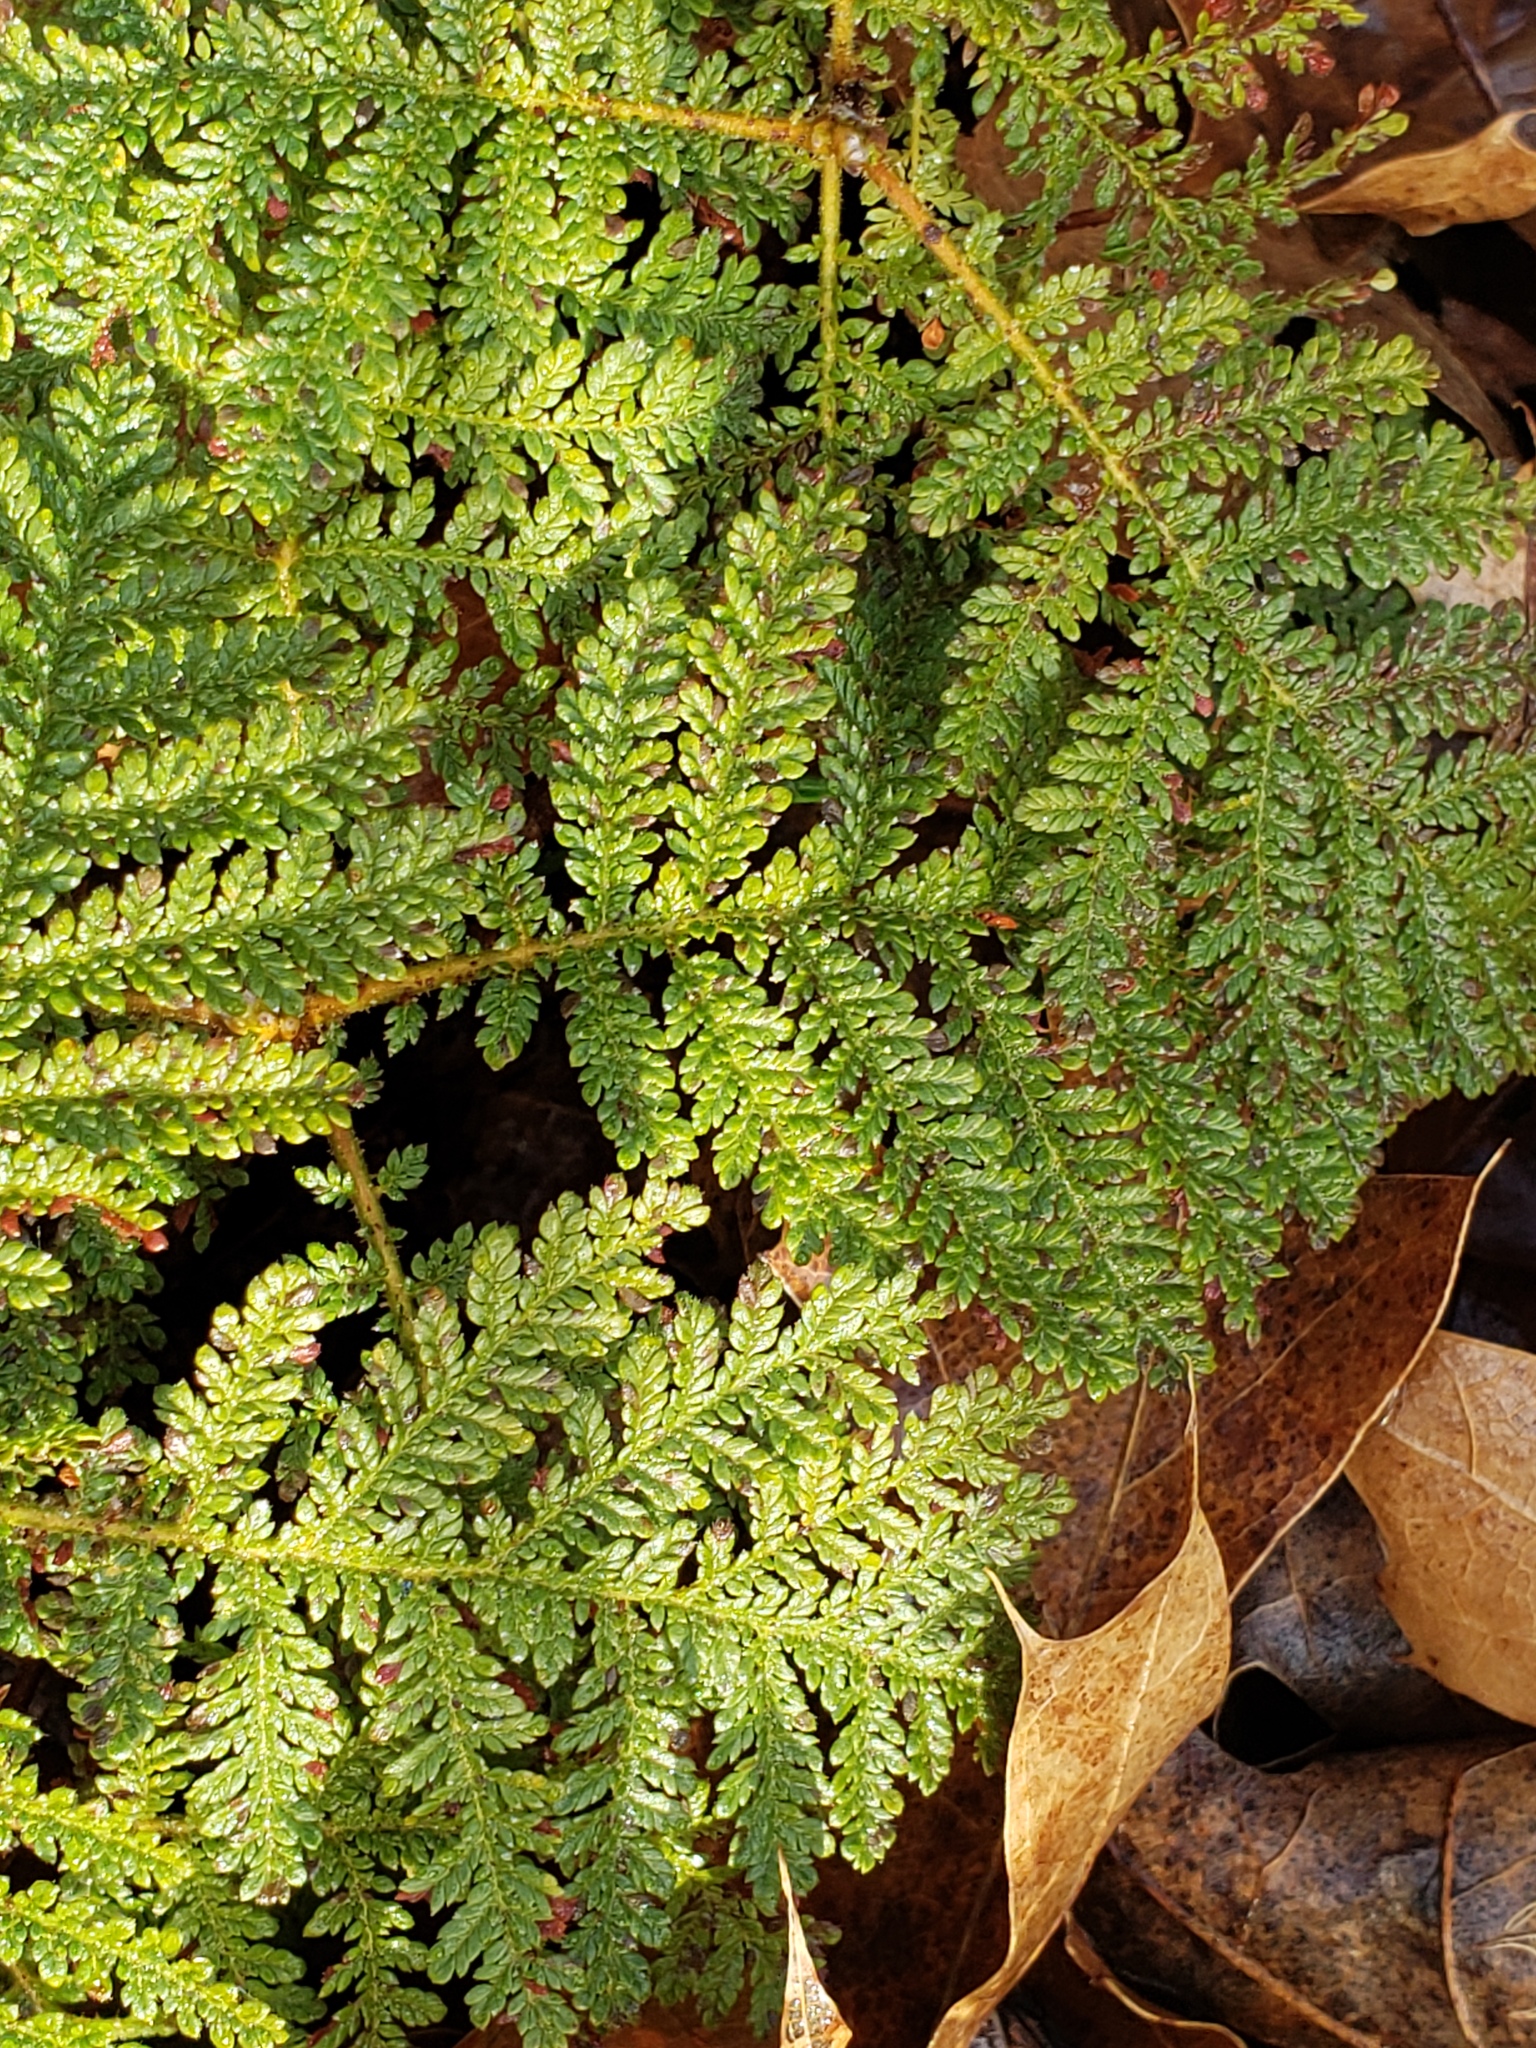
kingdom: Plantae
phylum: Tracheophyta
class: Magnoliopsida
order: Rosales
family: Rosaceae
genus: Chamaebatia
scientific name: Chamaebatia foliolosa
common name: Mountain misery
